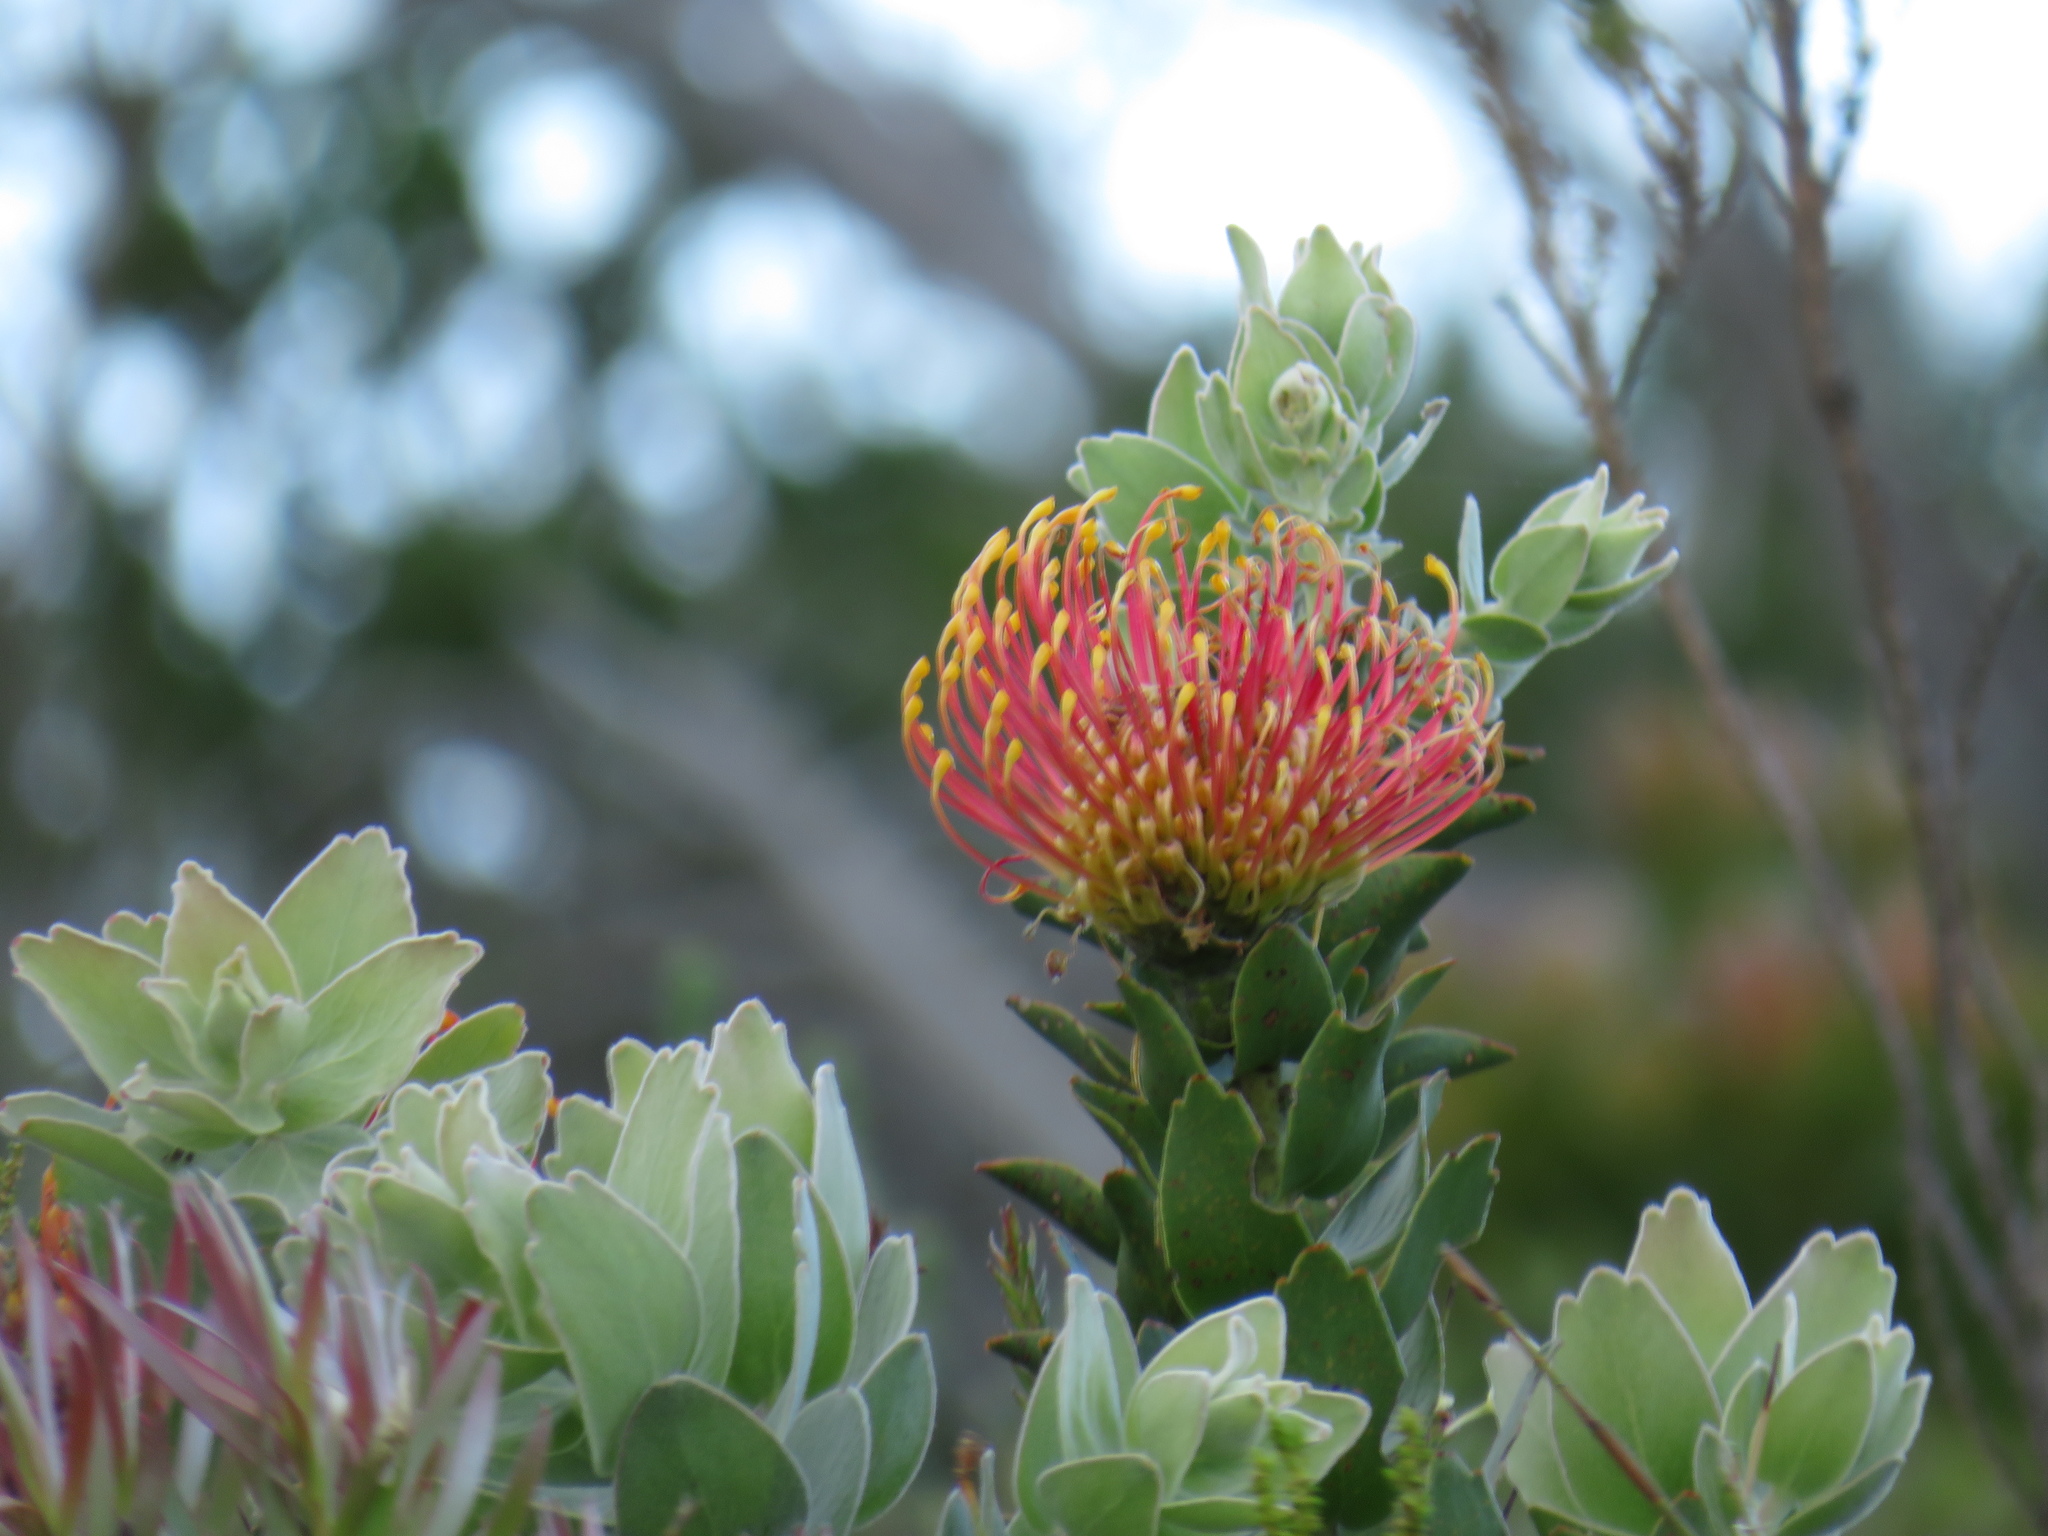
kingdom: Plantae
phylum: Tracheophyta
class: Magnoliopsida
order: Proteales
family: Proteaceae
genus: Leucospermum
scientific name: Leucospermum cordifolium
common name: Red pincushion-protea
